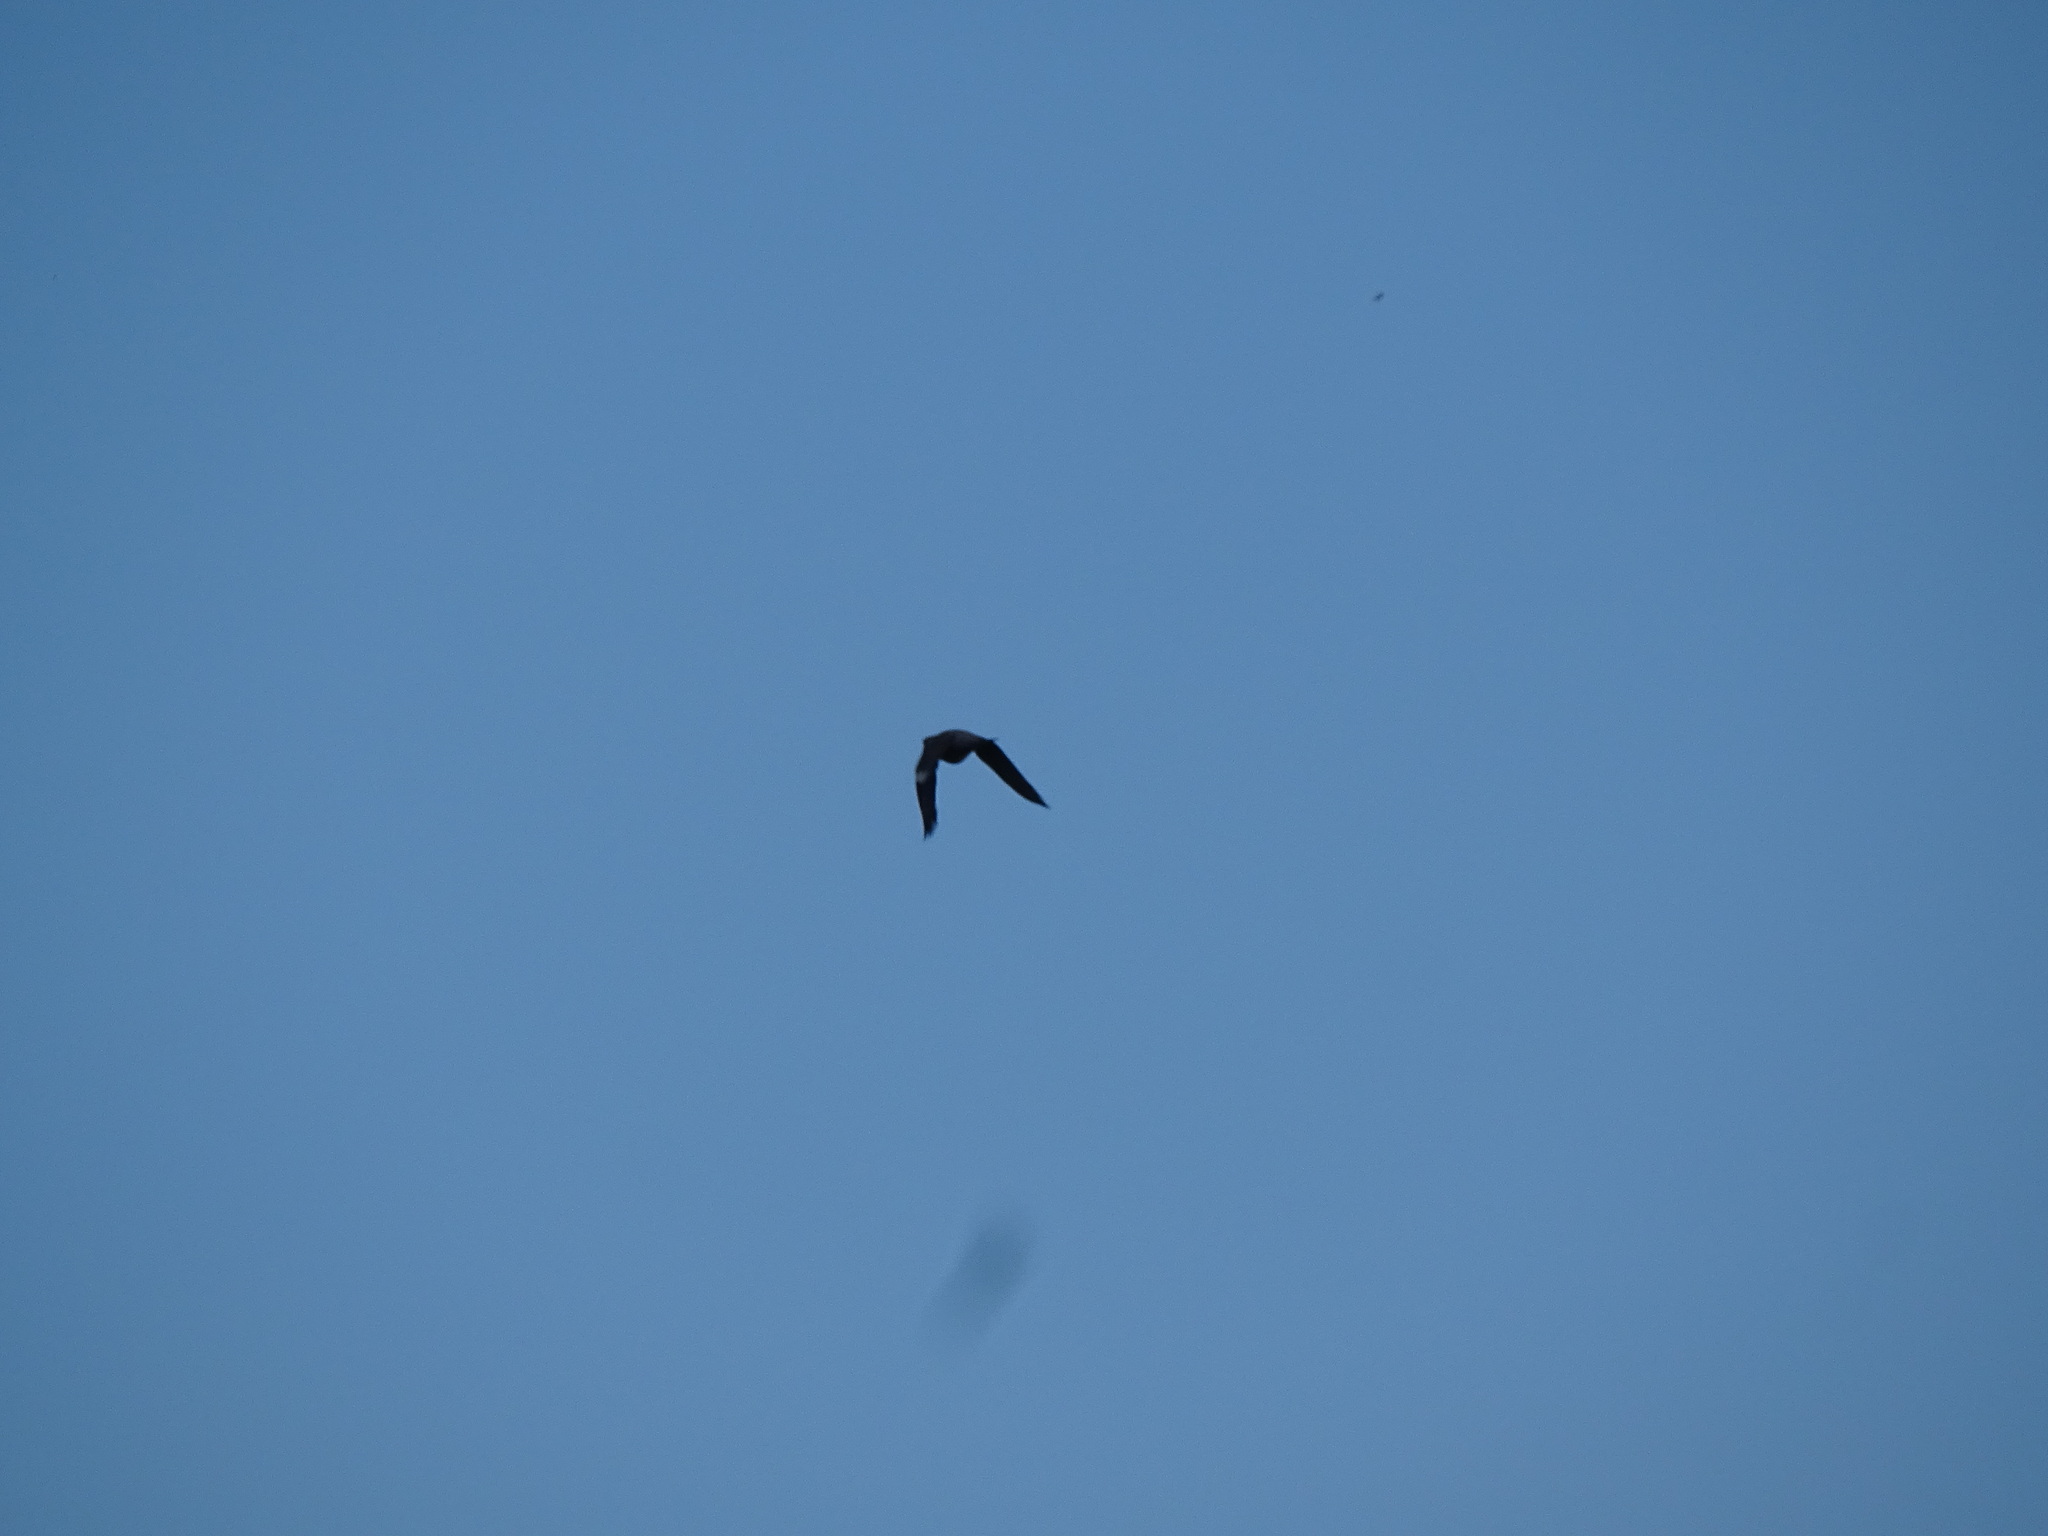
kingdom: Animalia
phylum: Chordata
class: Aves
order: Columbiformes
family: Columbidae
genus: Columba
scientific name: Columba palumbus
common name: Common wood pigeon
